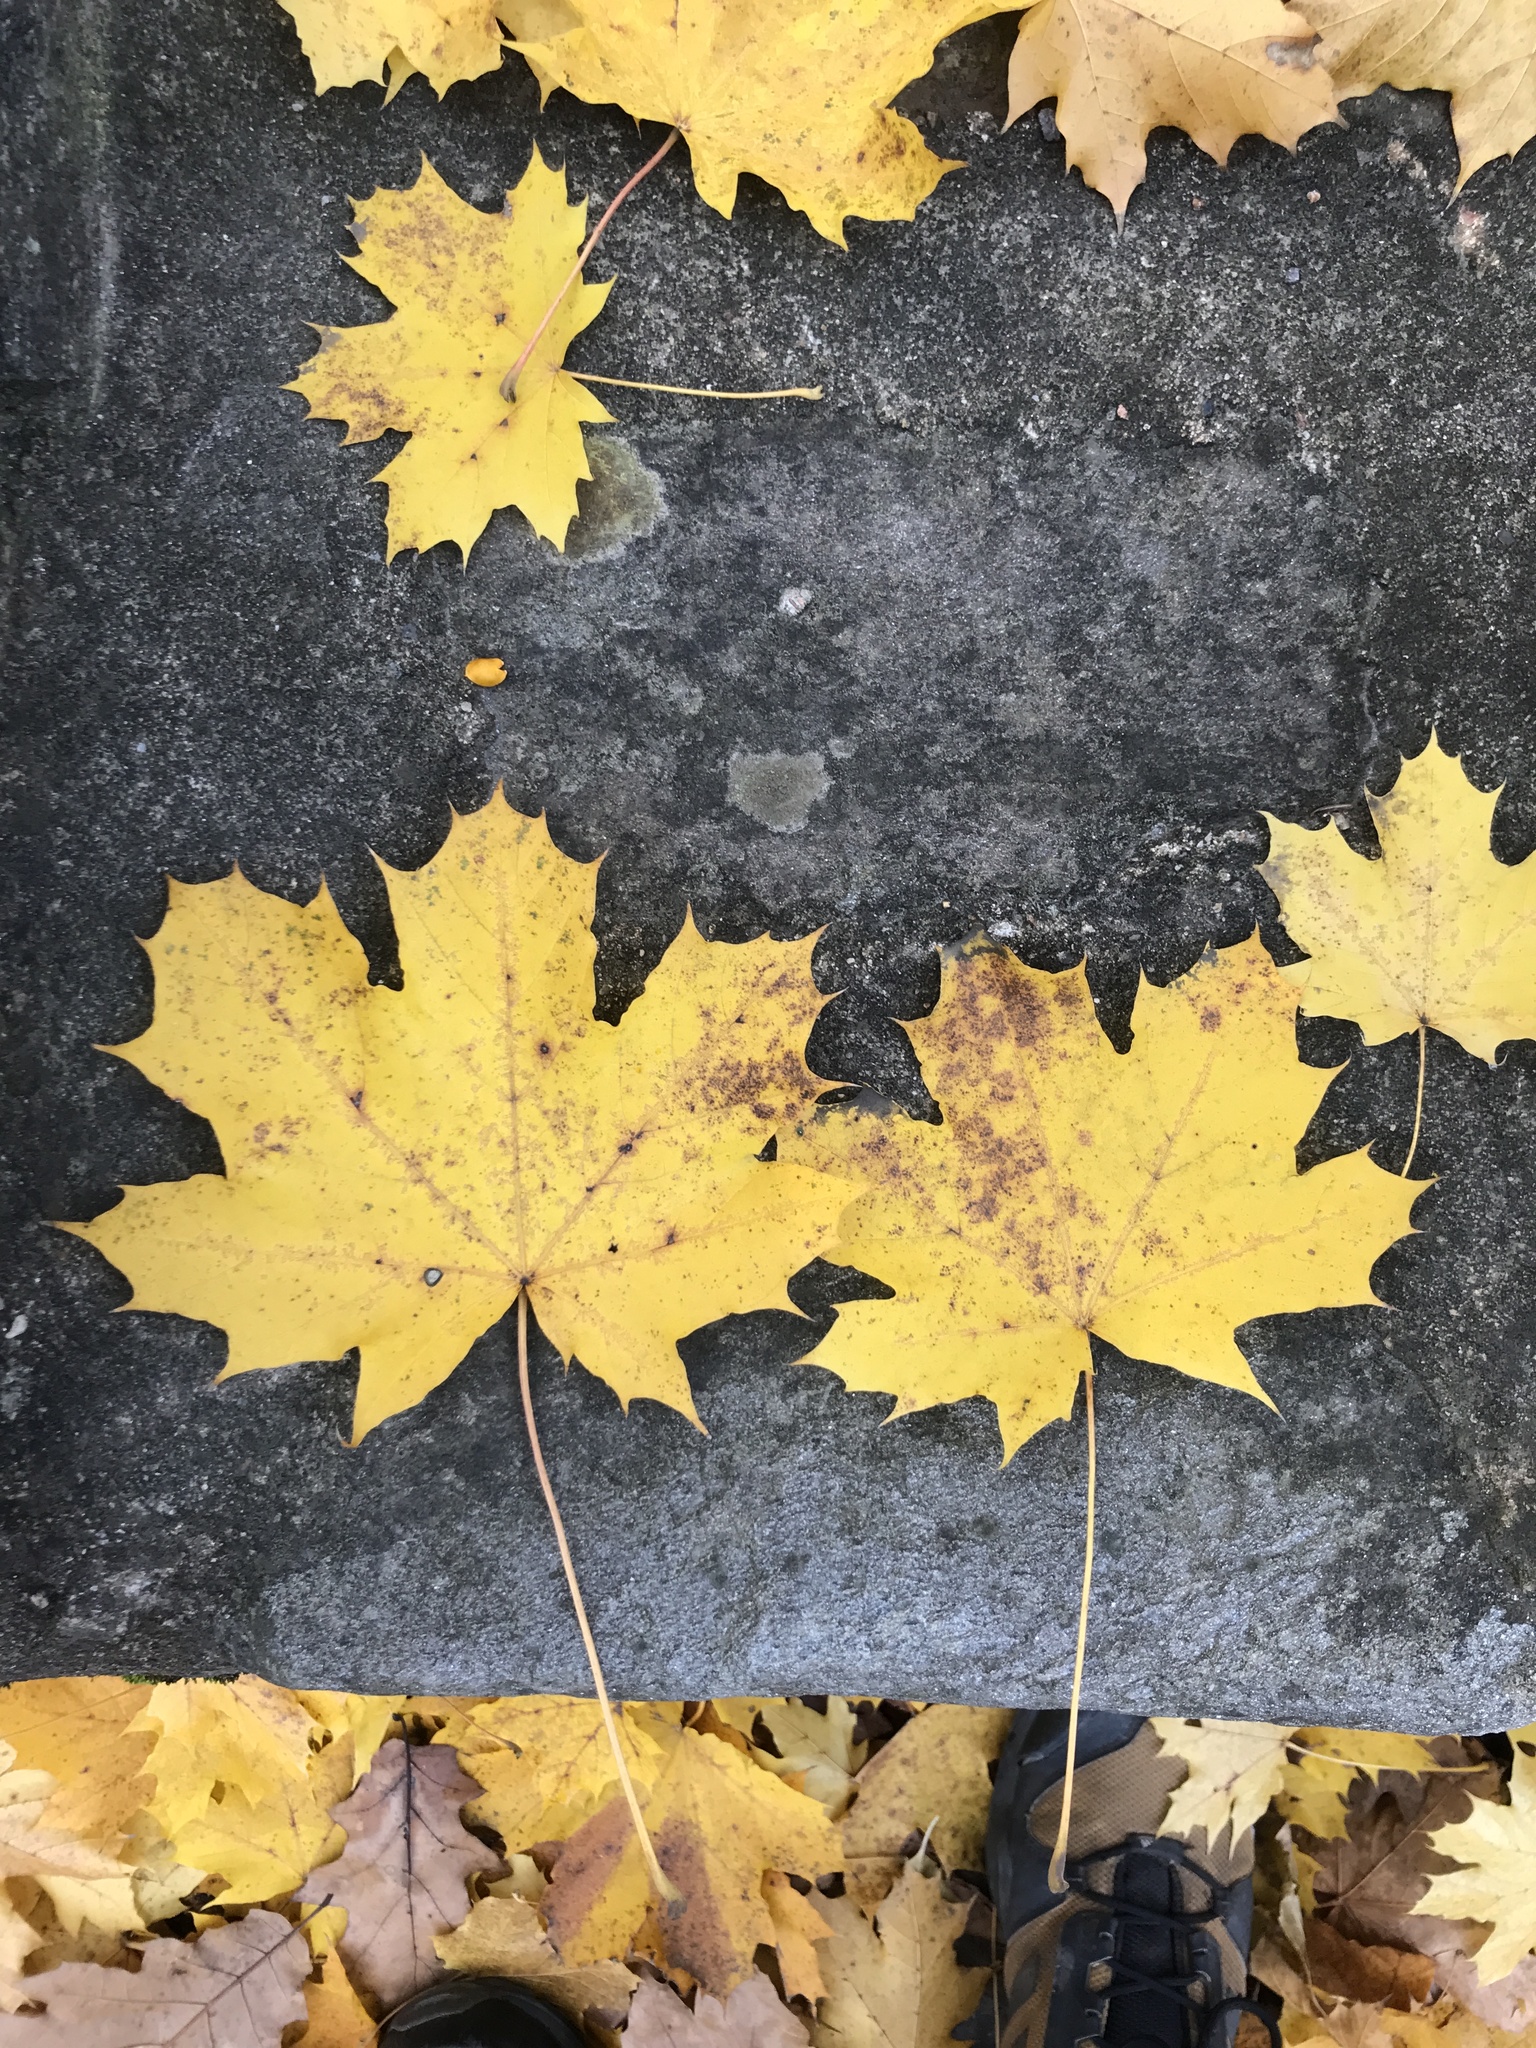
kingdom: Plantae
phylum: Tracheophyta
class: Magnoliopsida
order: Sapindales
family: Sapindaceae
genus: Acer
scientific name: Acer platanoides
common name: Norway maple
